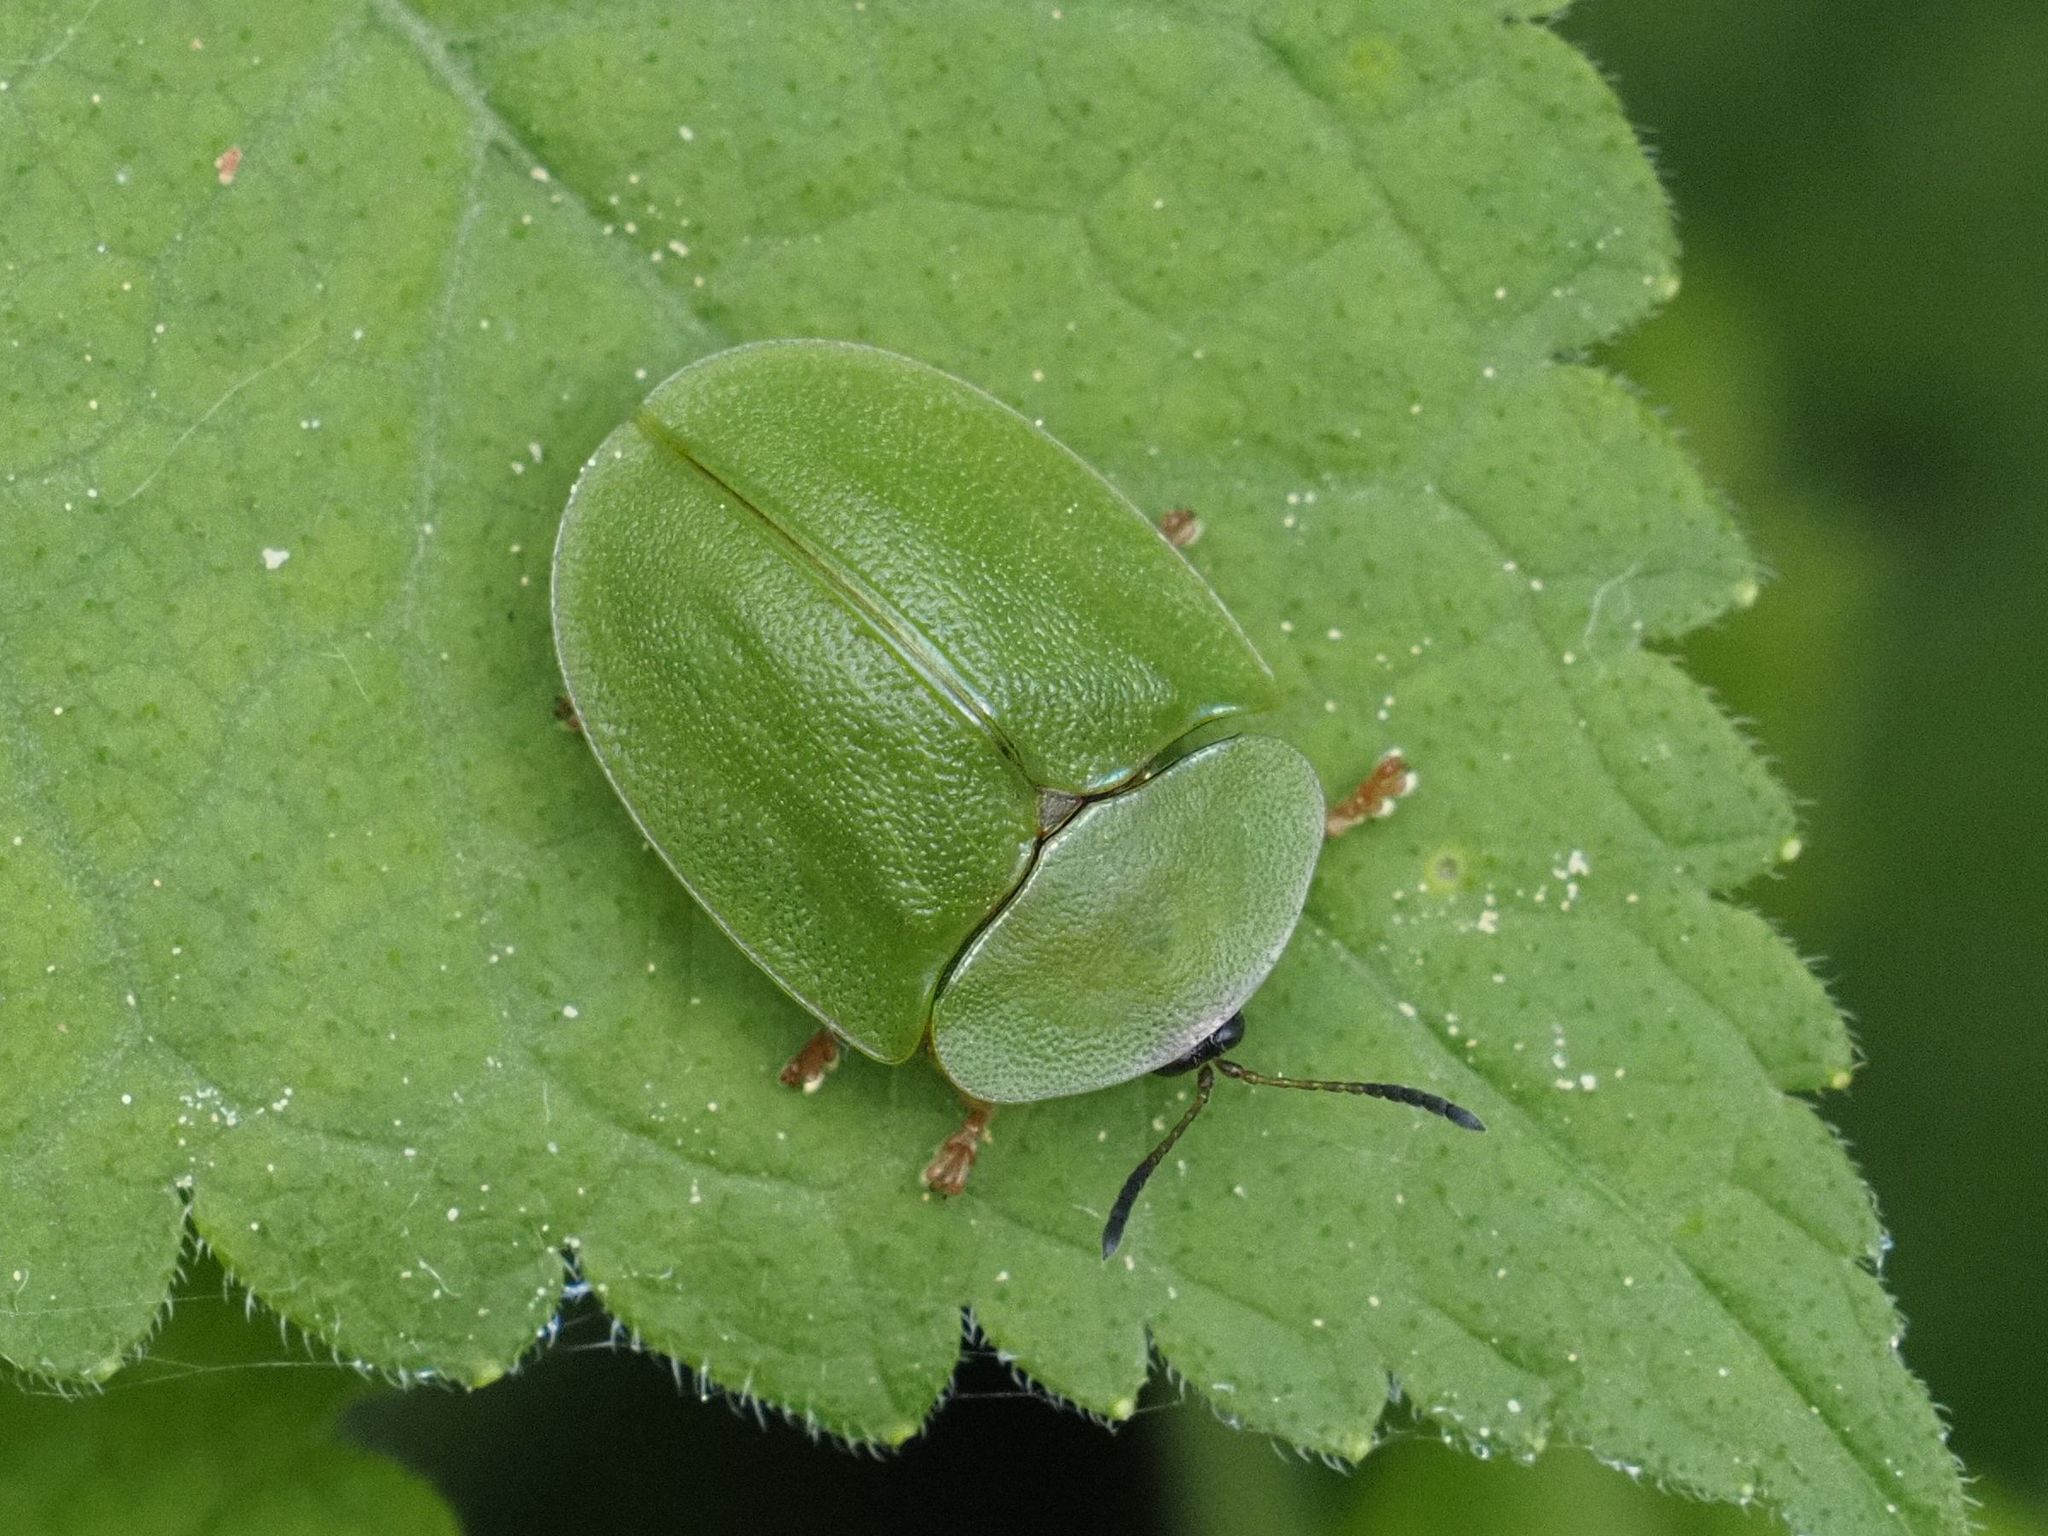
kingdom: Animalia
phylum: Arthropoda
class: Insecta
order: Coleoptera
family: Chrysomelidae
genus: Cassida
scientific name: Cassida viridis
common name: Green tortoise beetle
